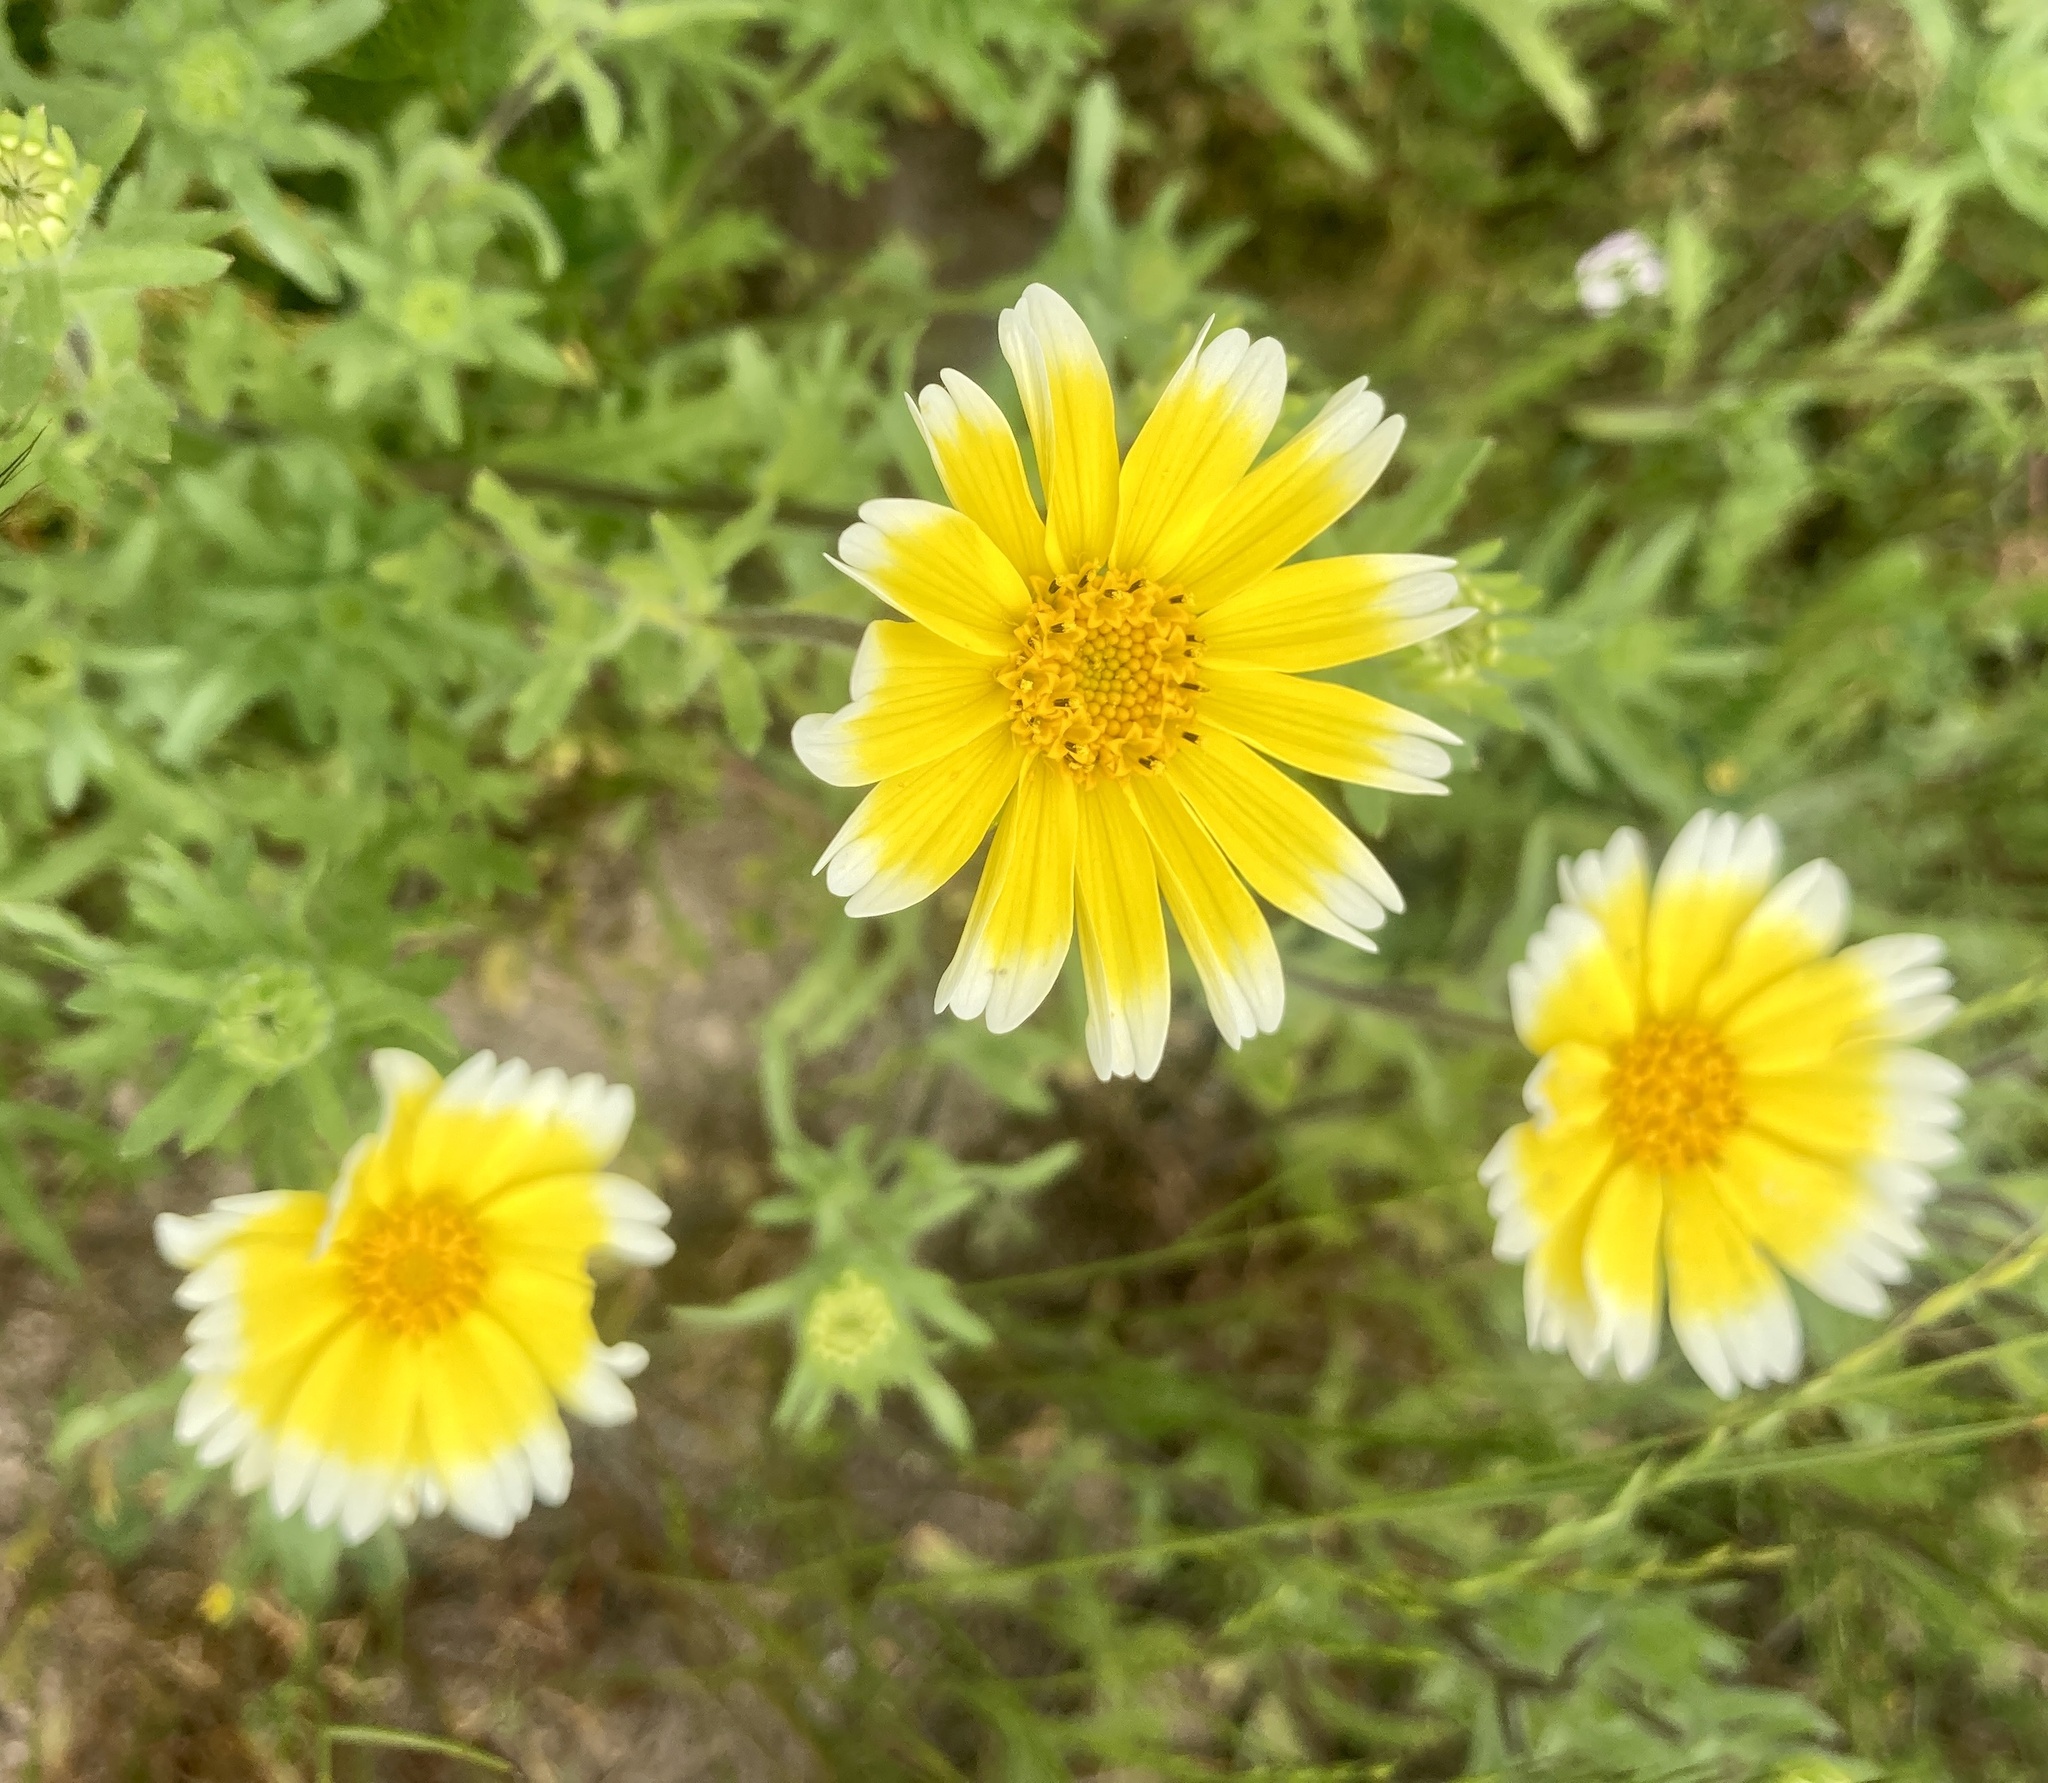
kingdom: Plantae
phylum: Tracheophyta
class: Magnoliopsida
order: Asterales
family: Asteraceae
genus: Layia
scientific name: Layia platyglossa
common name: Tidy-tips
